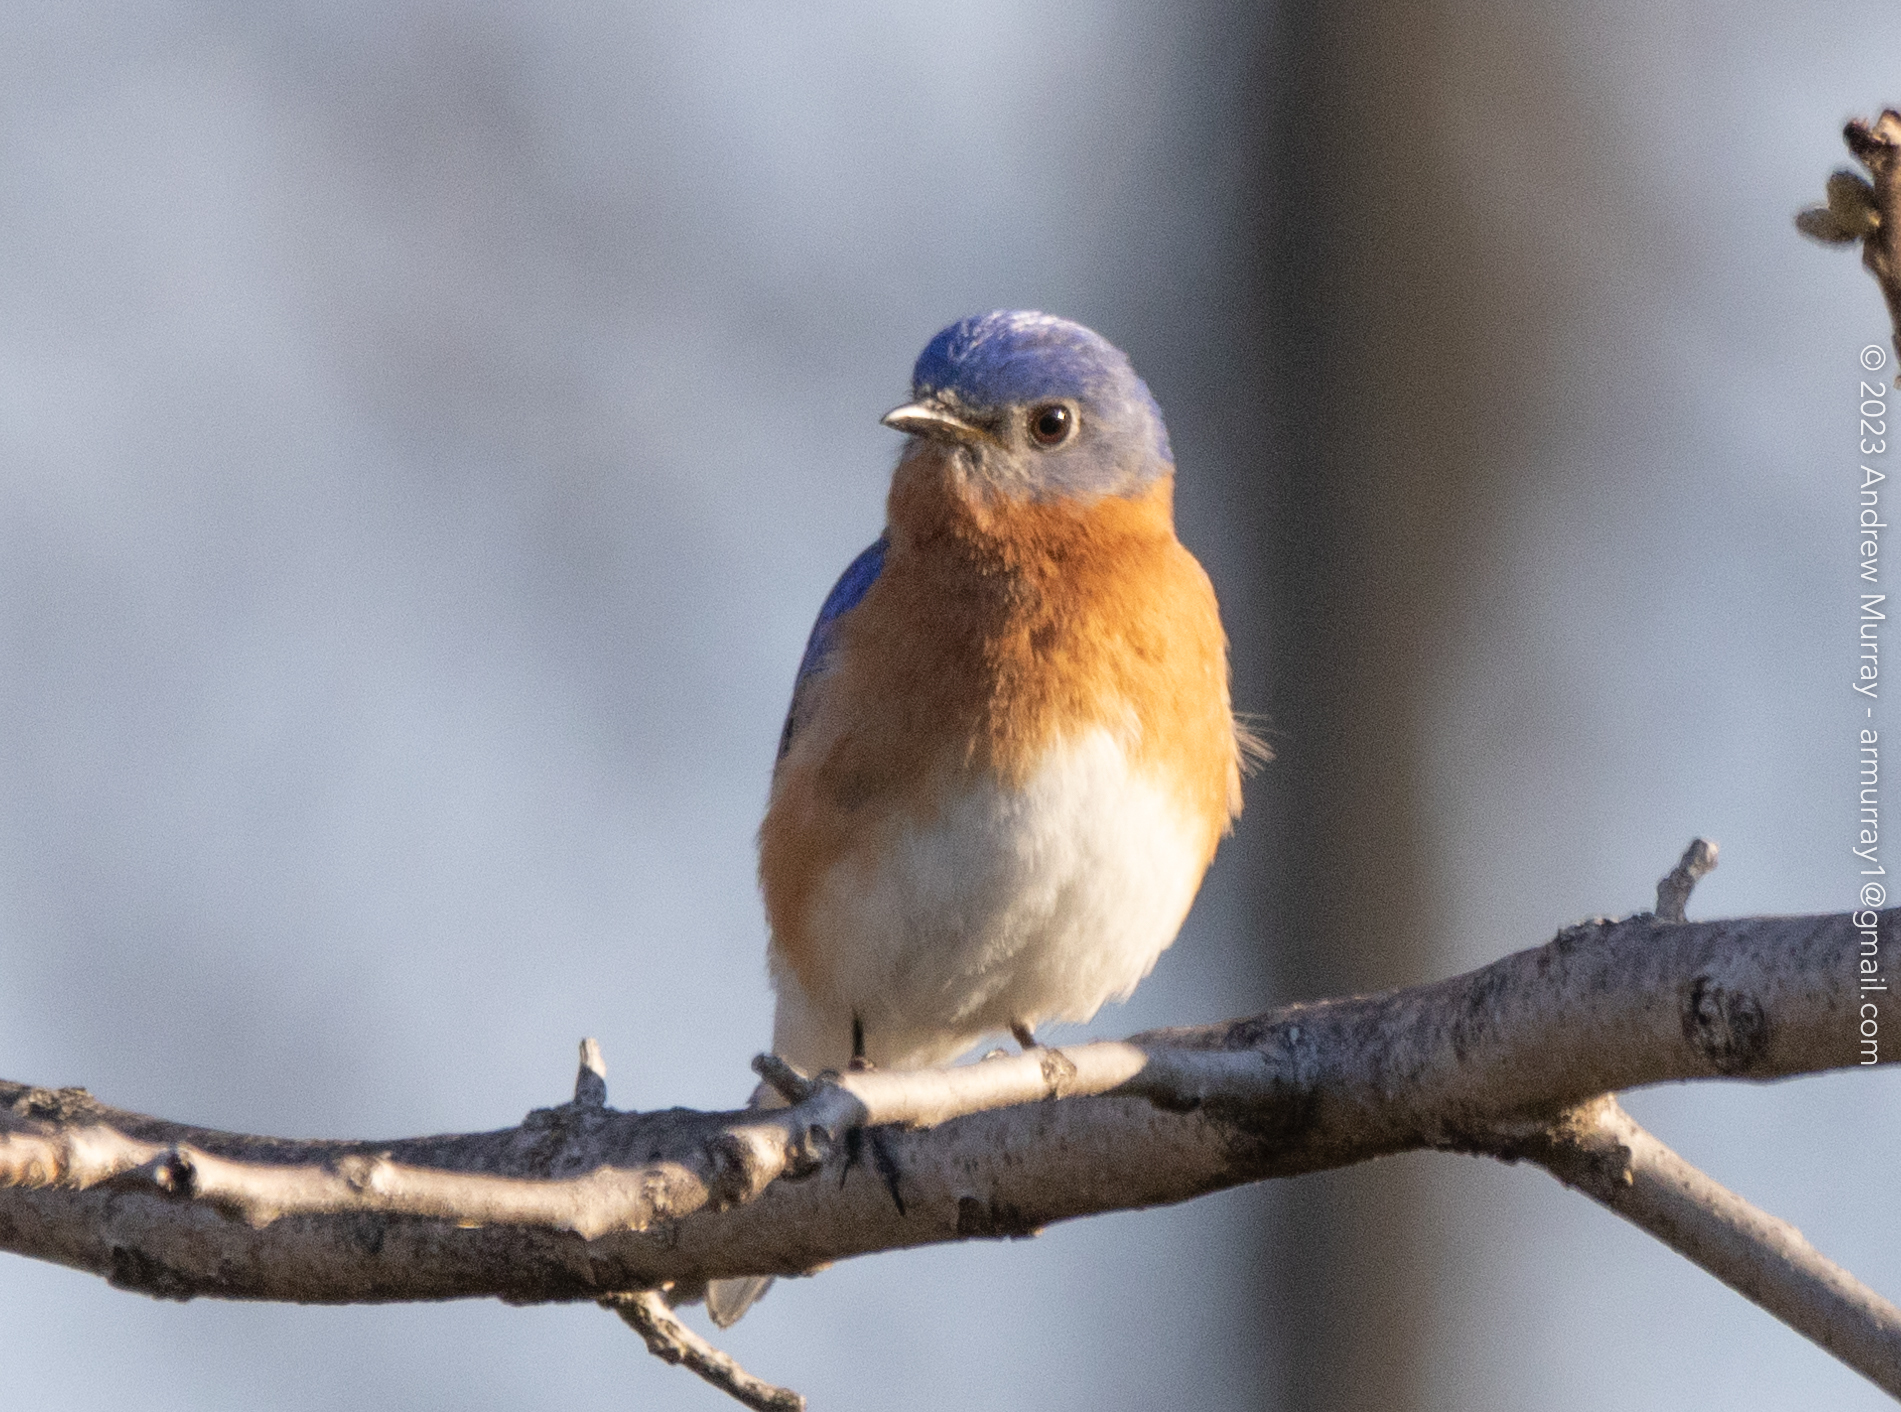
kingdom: Animalia
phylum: Chordata
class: Aves
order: Passeriformes
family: Turdidae
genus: Sialia
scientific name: Sialia sialis
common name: Eastern bluebird
